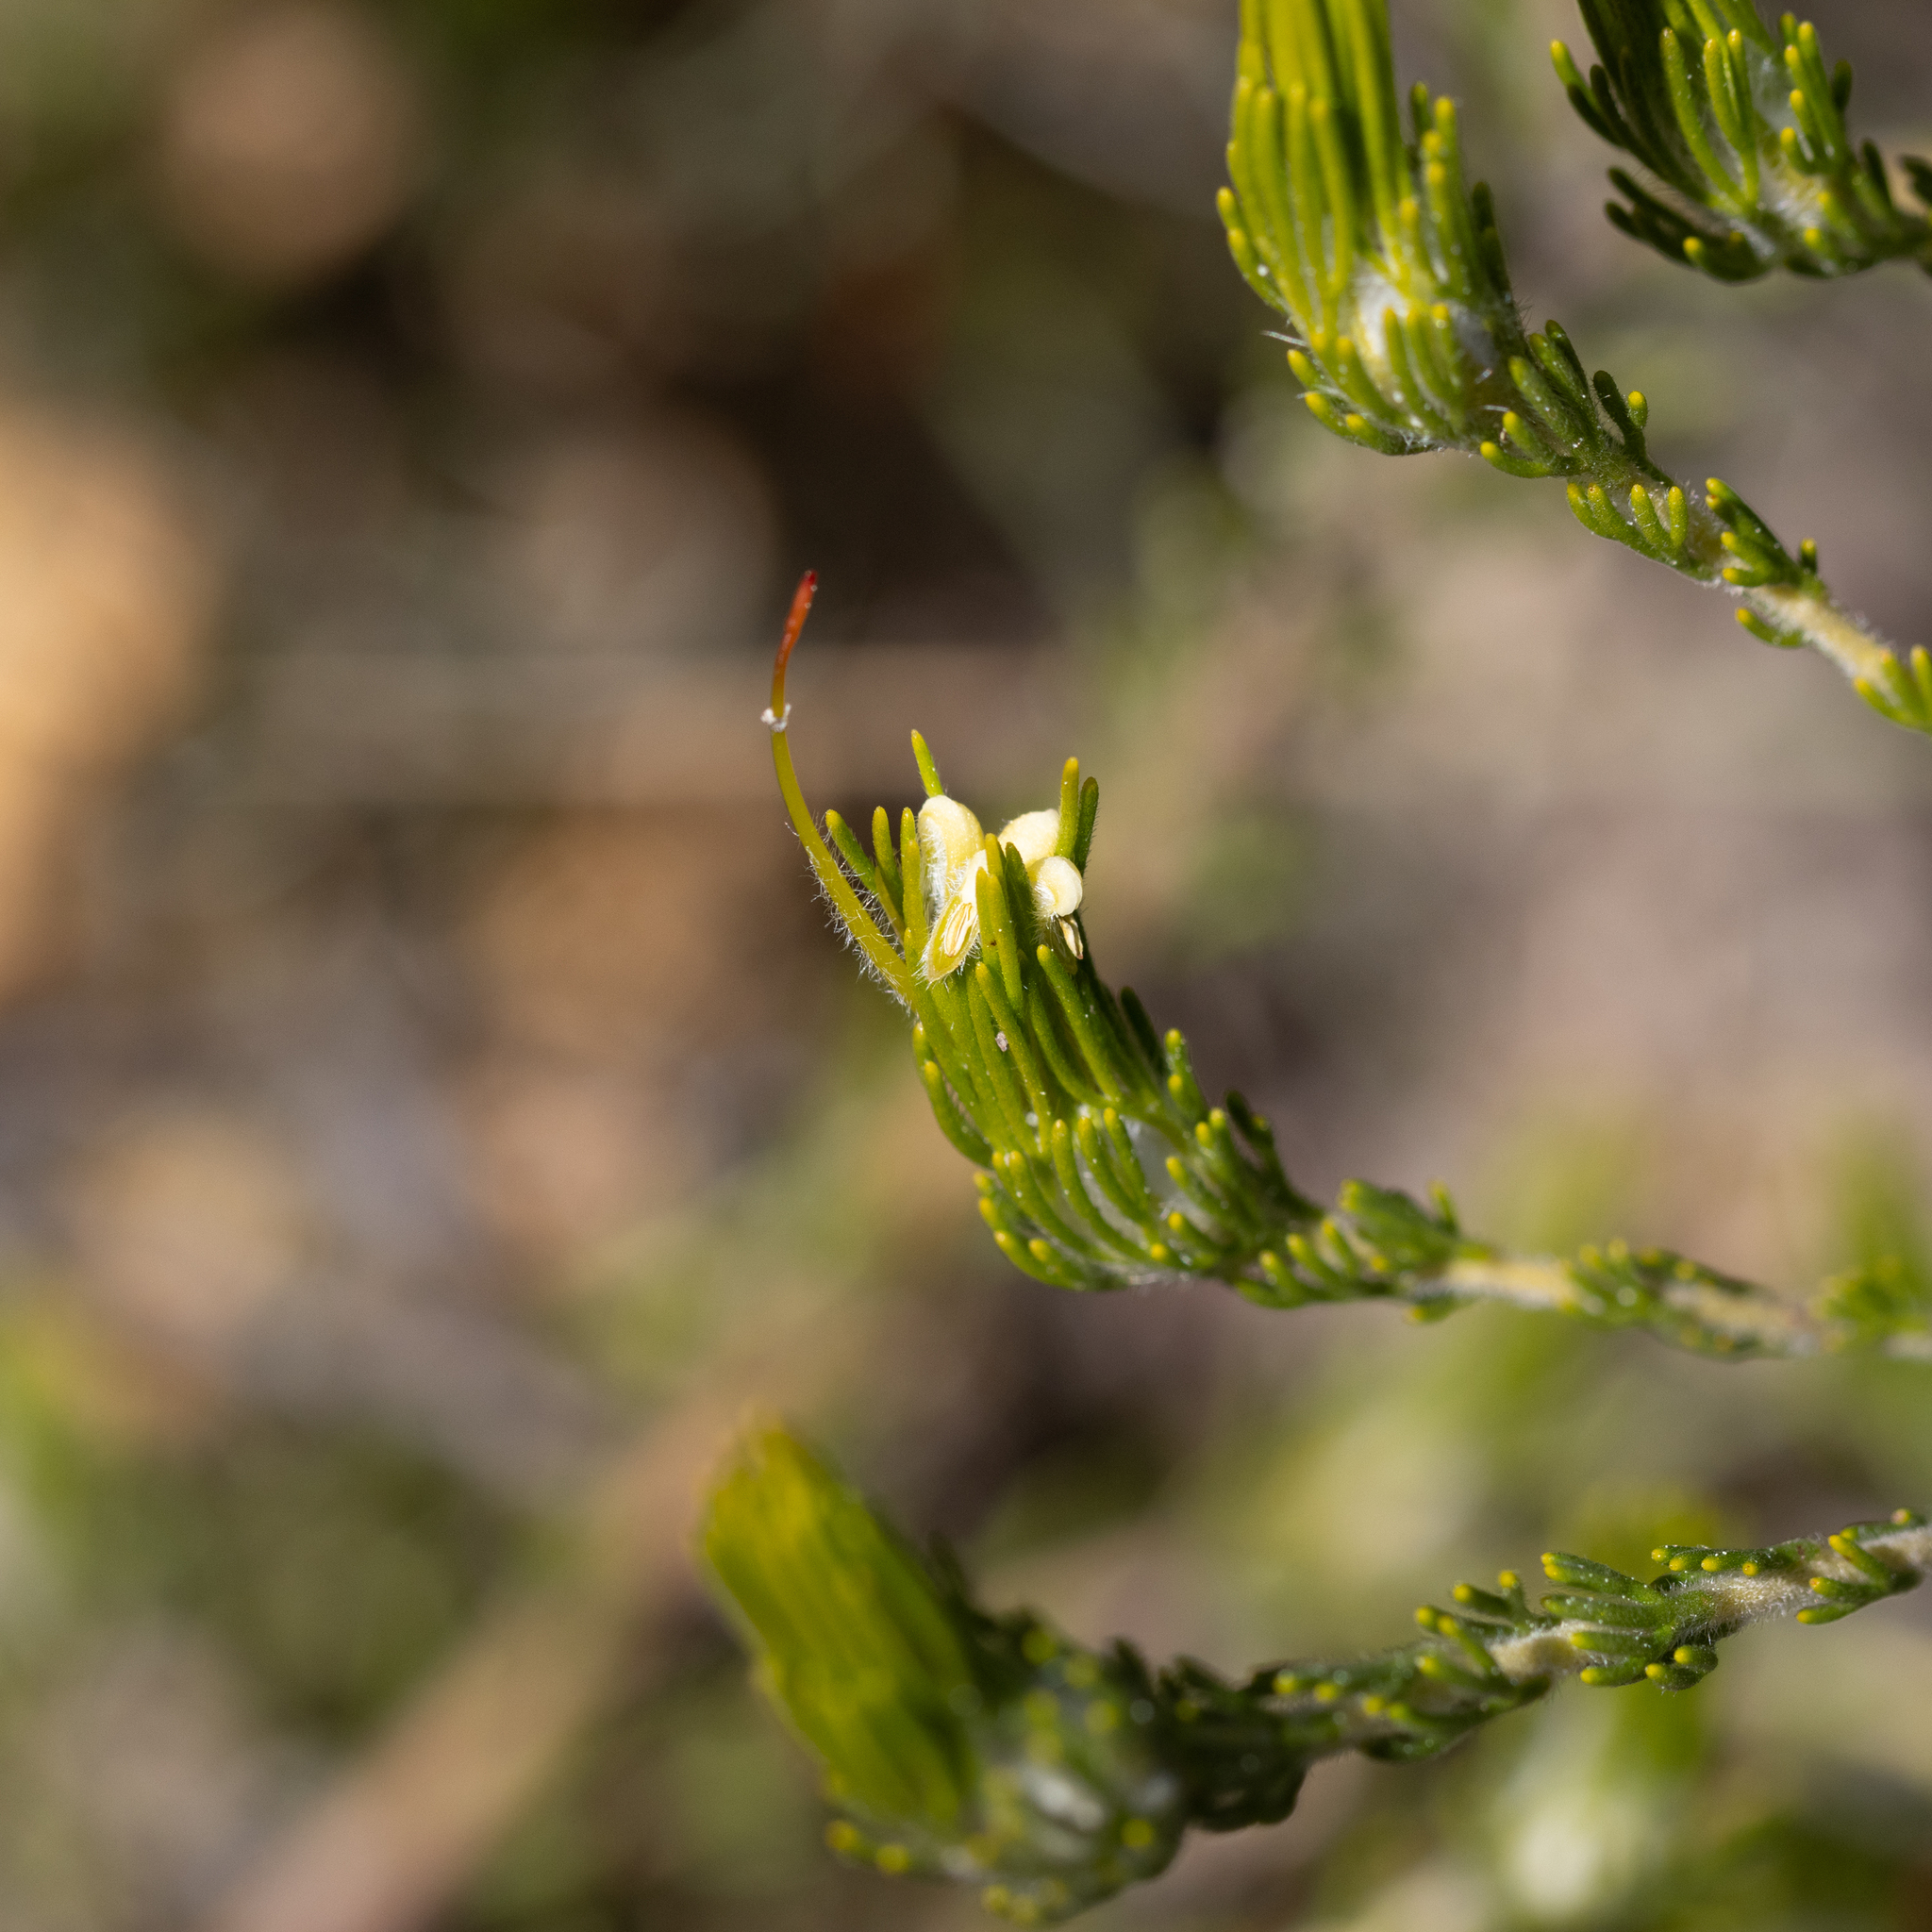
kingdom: Plantae
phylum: Tracheophyta
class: Magnoliopsida
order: Proteales
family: Proteaceae
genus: Adenanthos
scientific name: Adenanthos terminalis
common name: Yellow gland-flower
